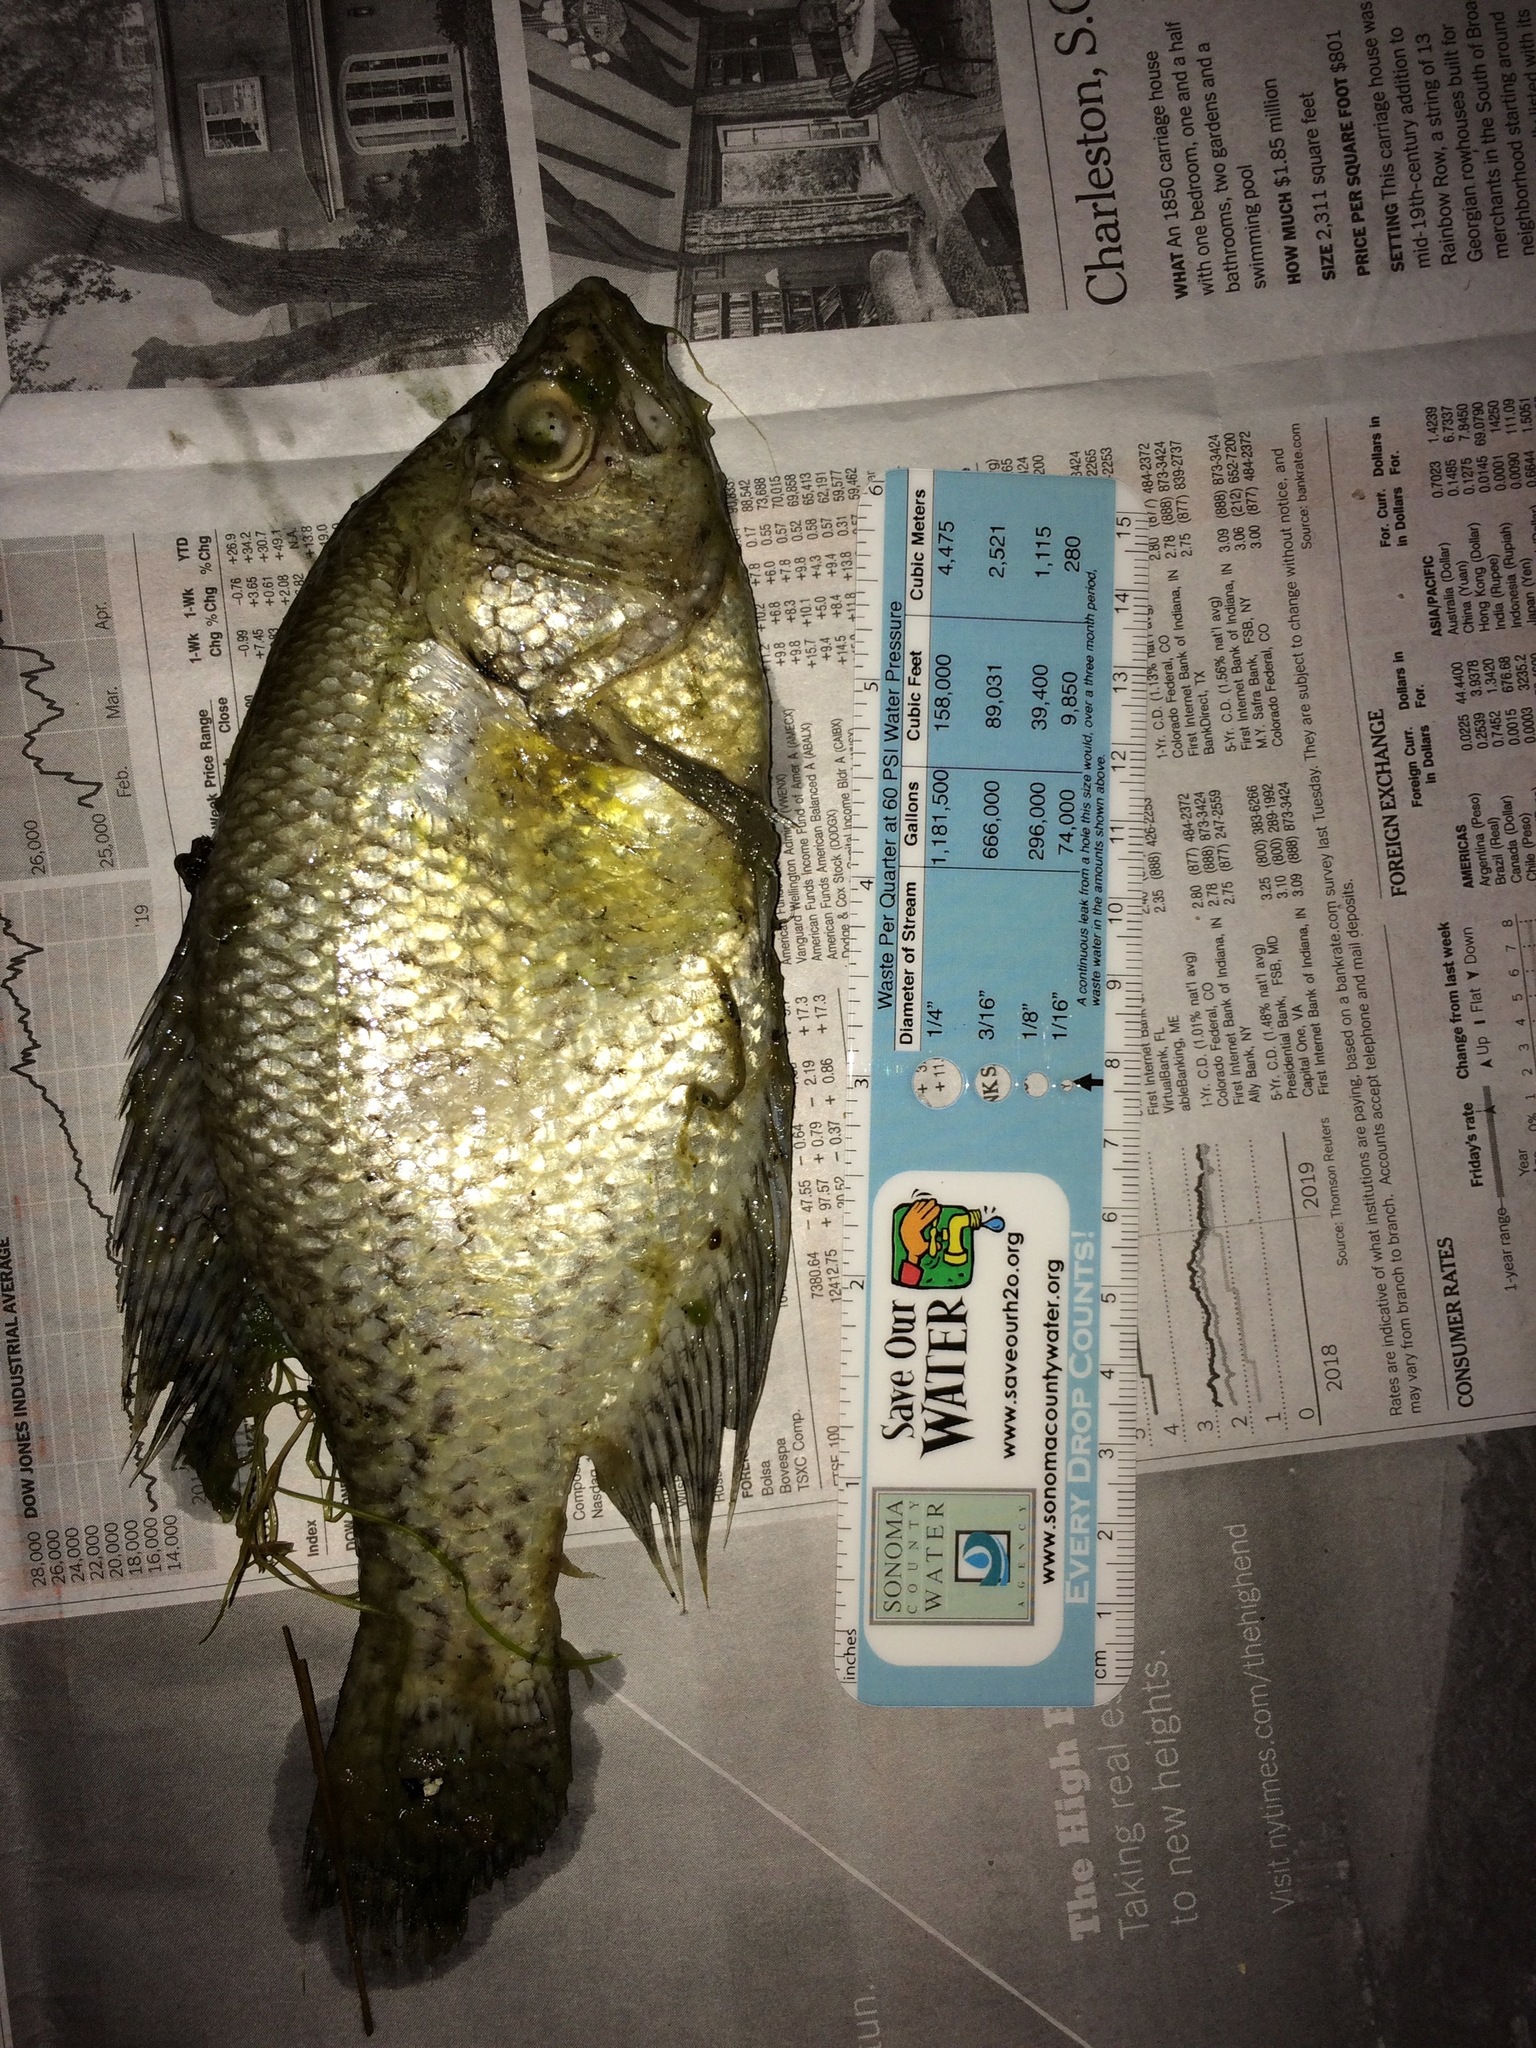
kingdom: Animalia
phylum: Chordata
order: Perciformes
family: Centrarchidae
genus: Pomoxis
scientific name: Pomoxis nigromaculatus
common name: Black crappie
